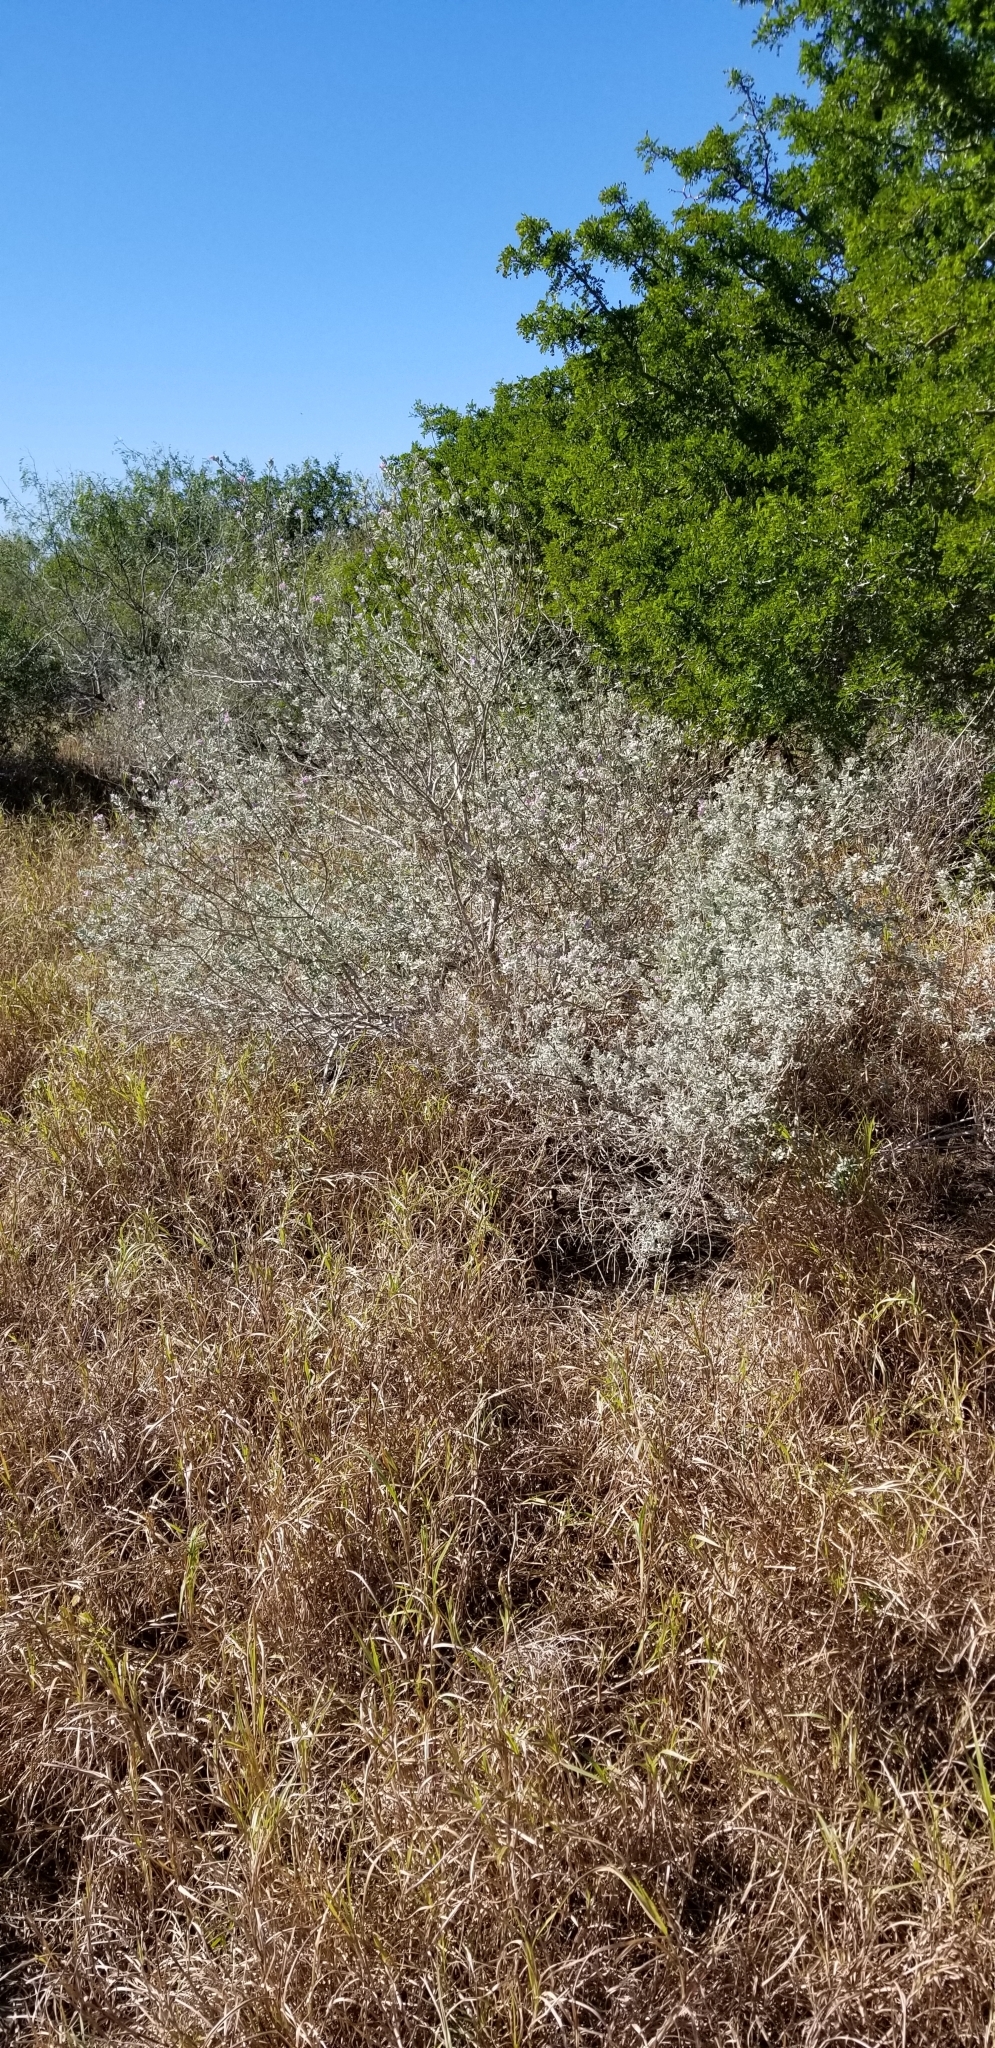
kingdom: Plantae
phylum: Tracheophyta
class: Magnoliopsida
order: Lamiales
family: Scrophulariaceae
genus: Leucophyllum
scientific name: Leucophyllum frutescens
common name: Texas silverleaf
